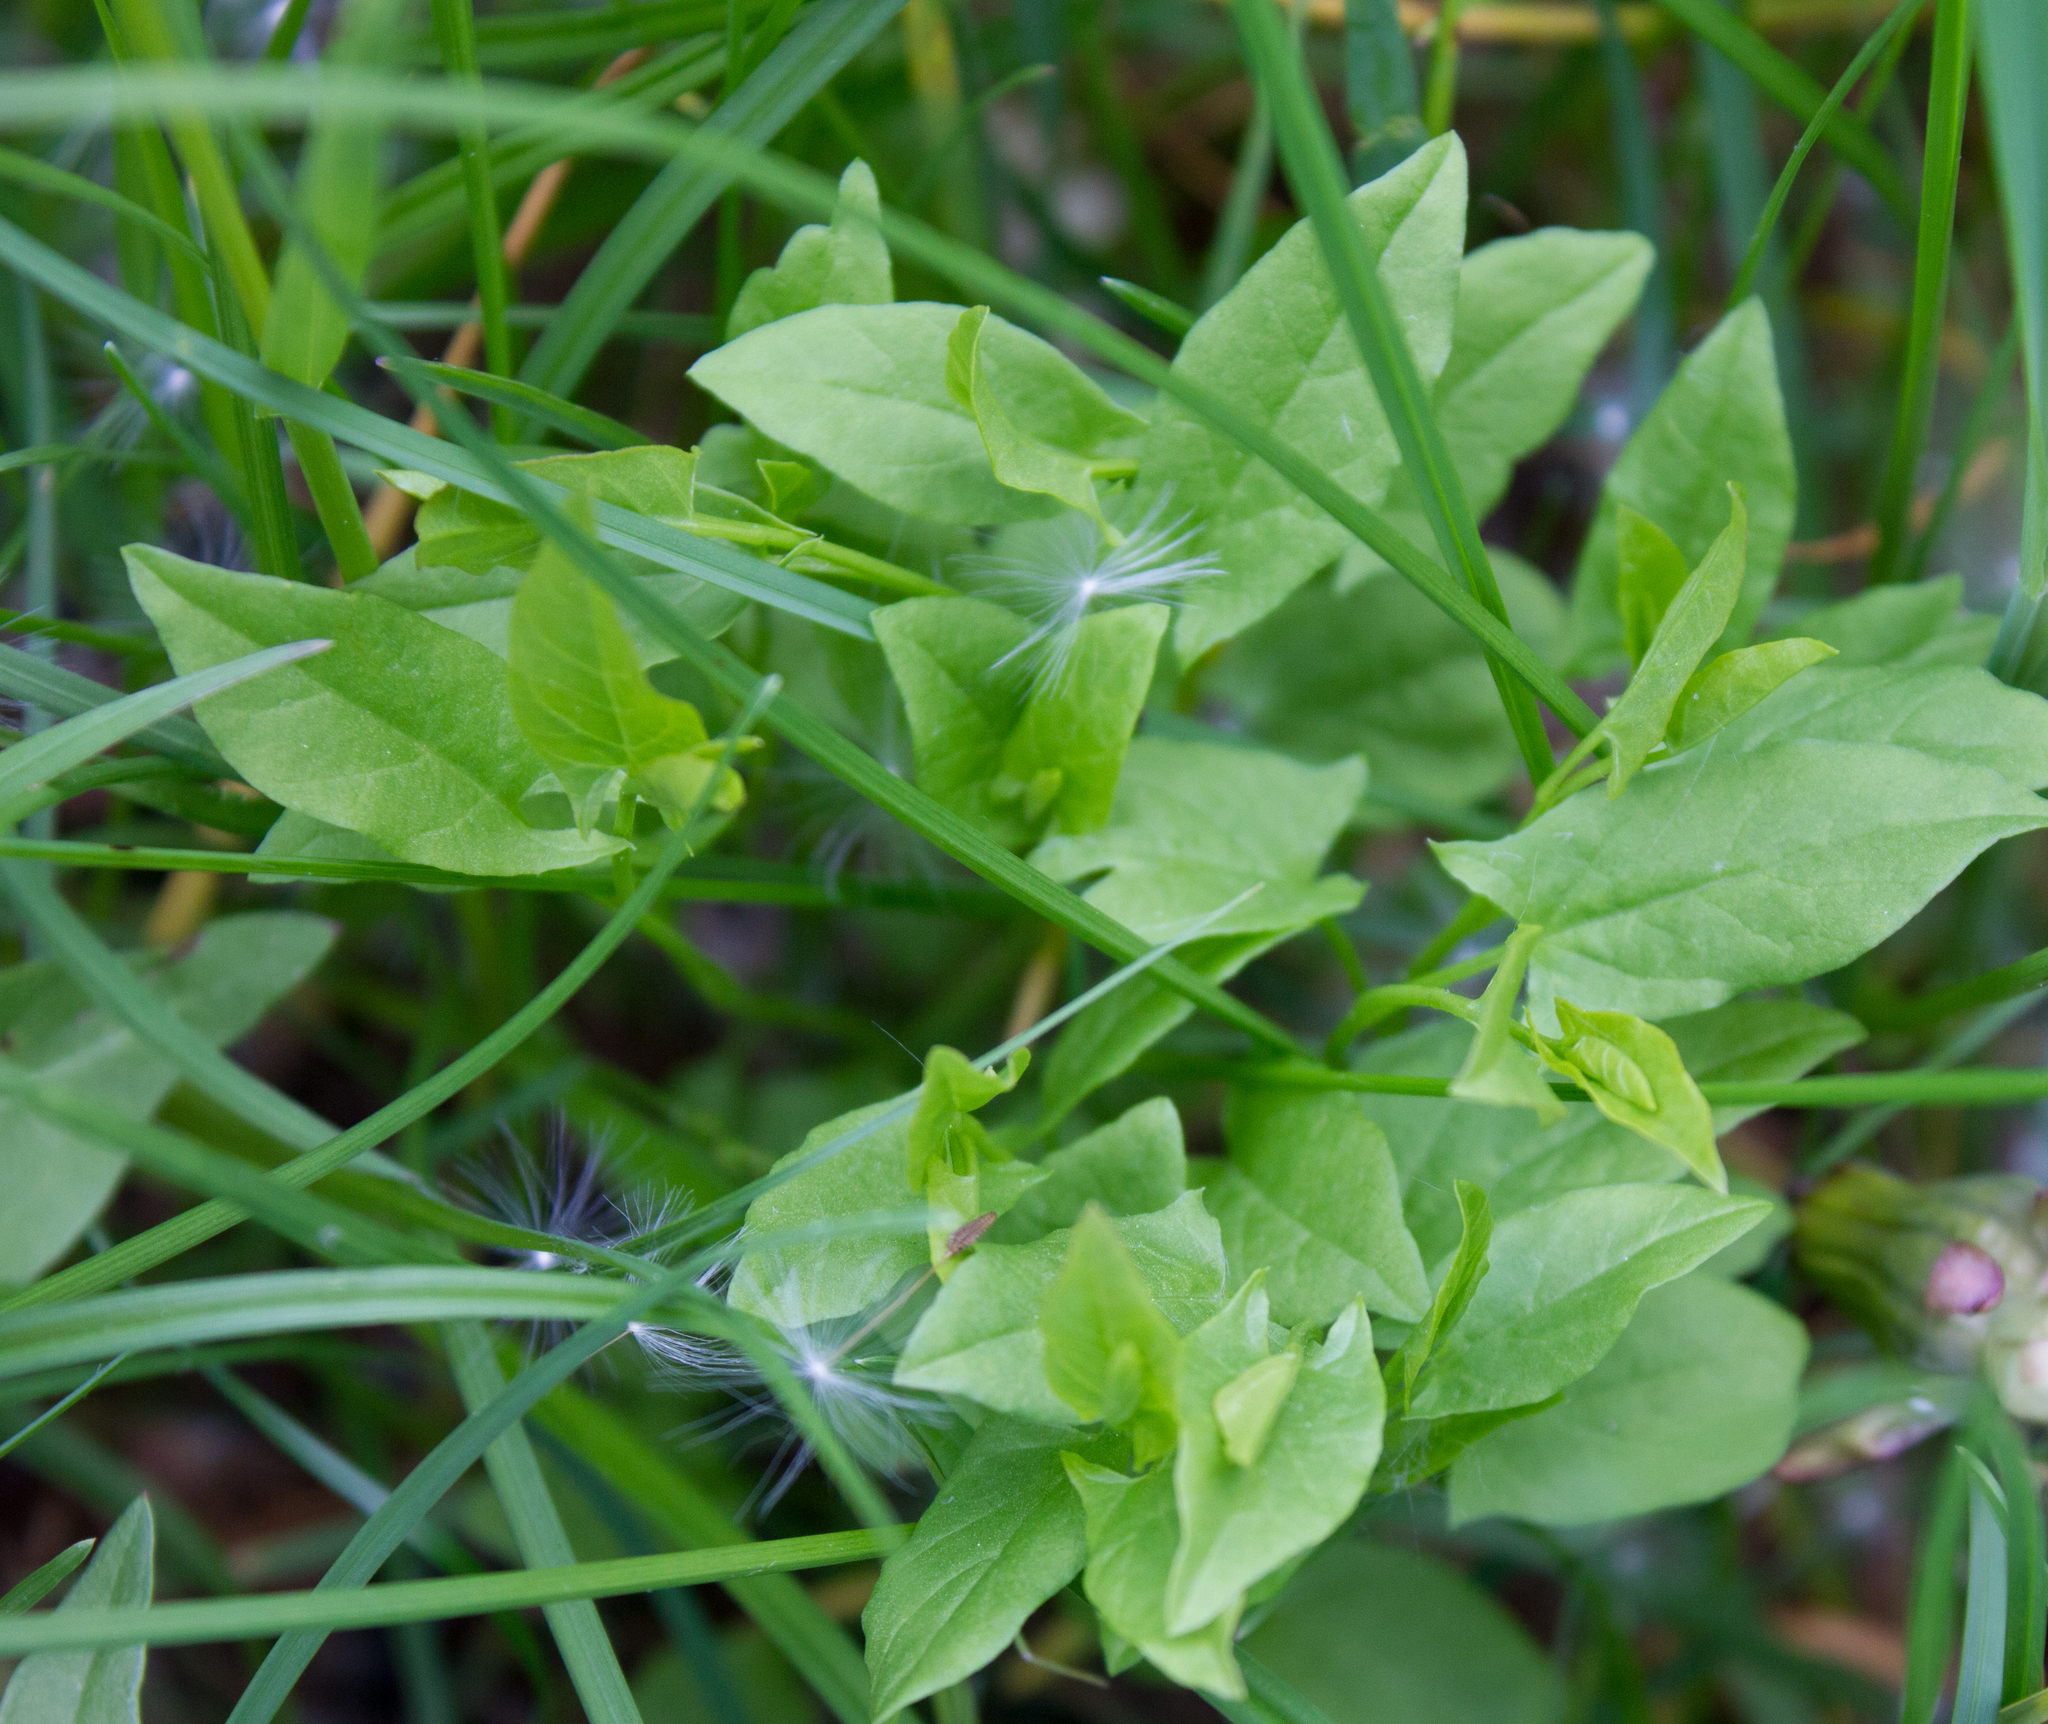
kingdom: Plantae
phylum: Tracheophyta
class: Magnoliopsida
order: Solanales
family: Convolvulaceae
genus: Convolvulus
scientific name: Convolvulus arvensis
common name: Field bindweed
